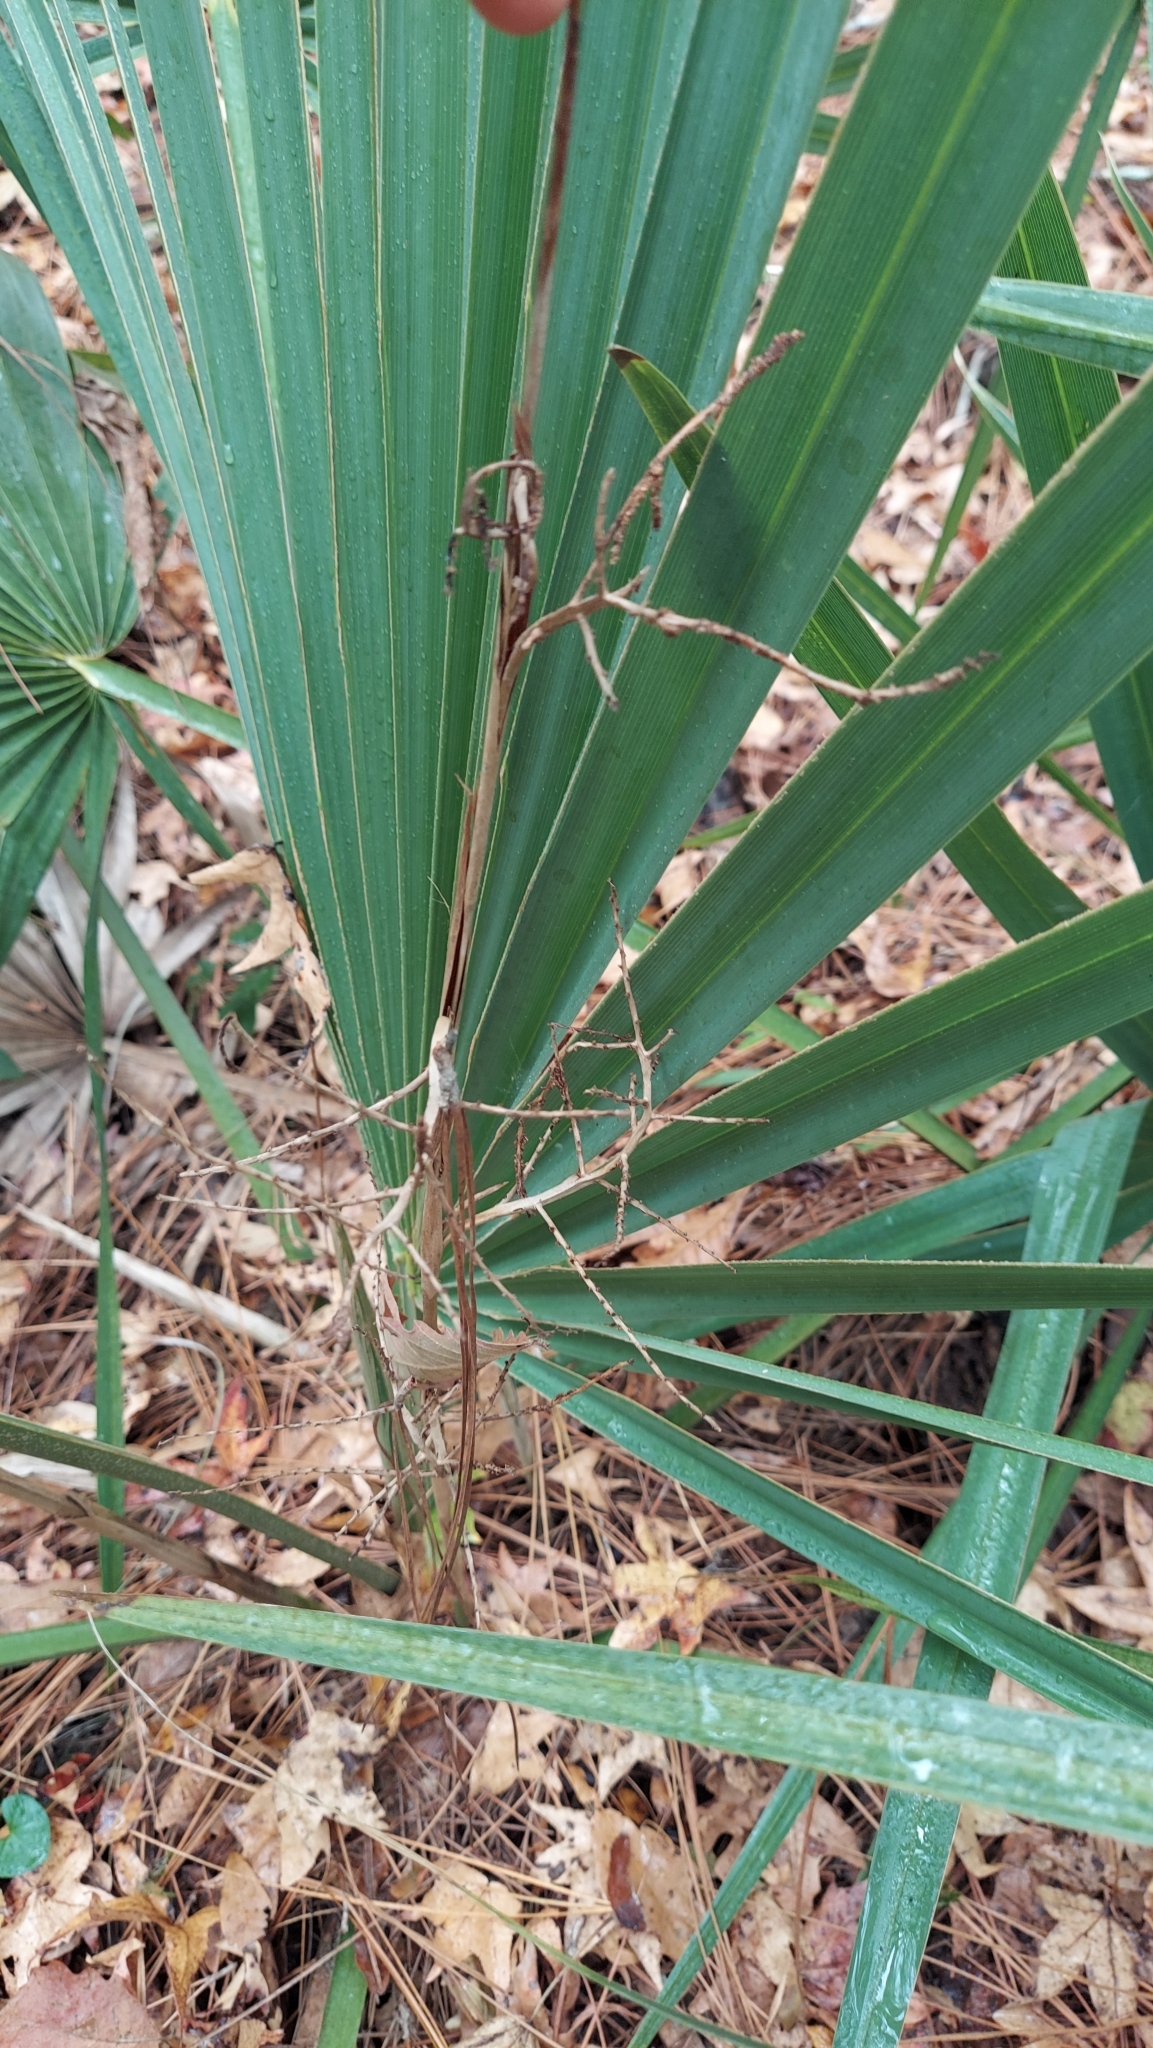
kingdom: Plantae
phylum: Tracheophyta
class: Liliopsida
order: Arecales
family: Arecaceae
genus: Sabal
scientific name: Sabal minor
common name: Dwarf palmetto
